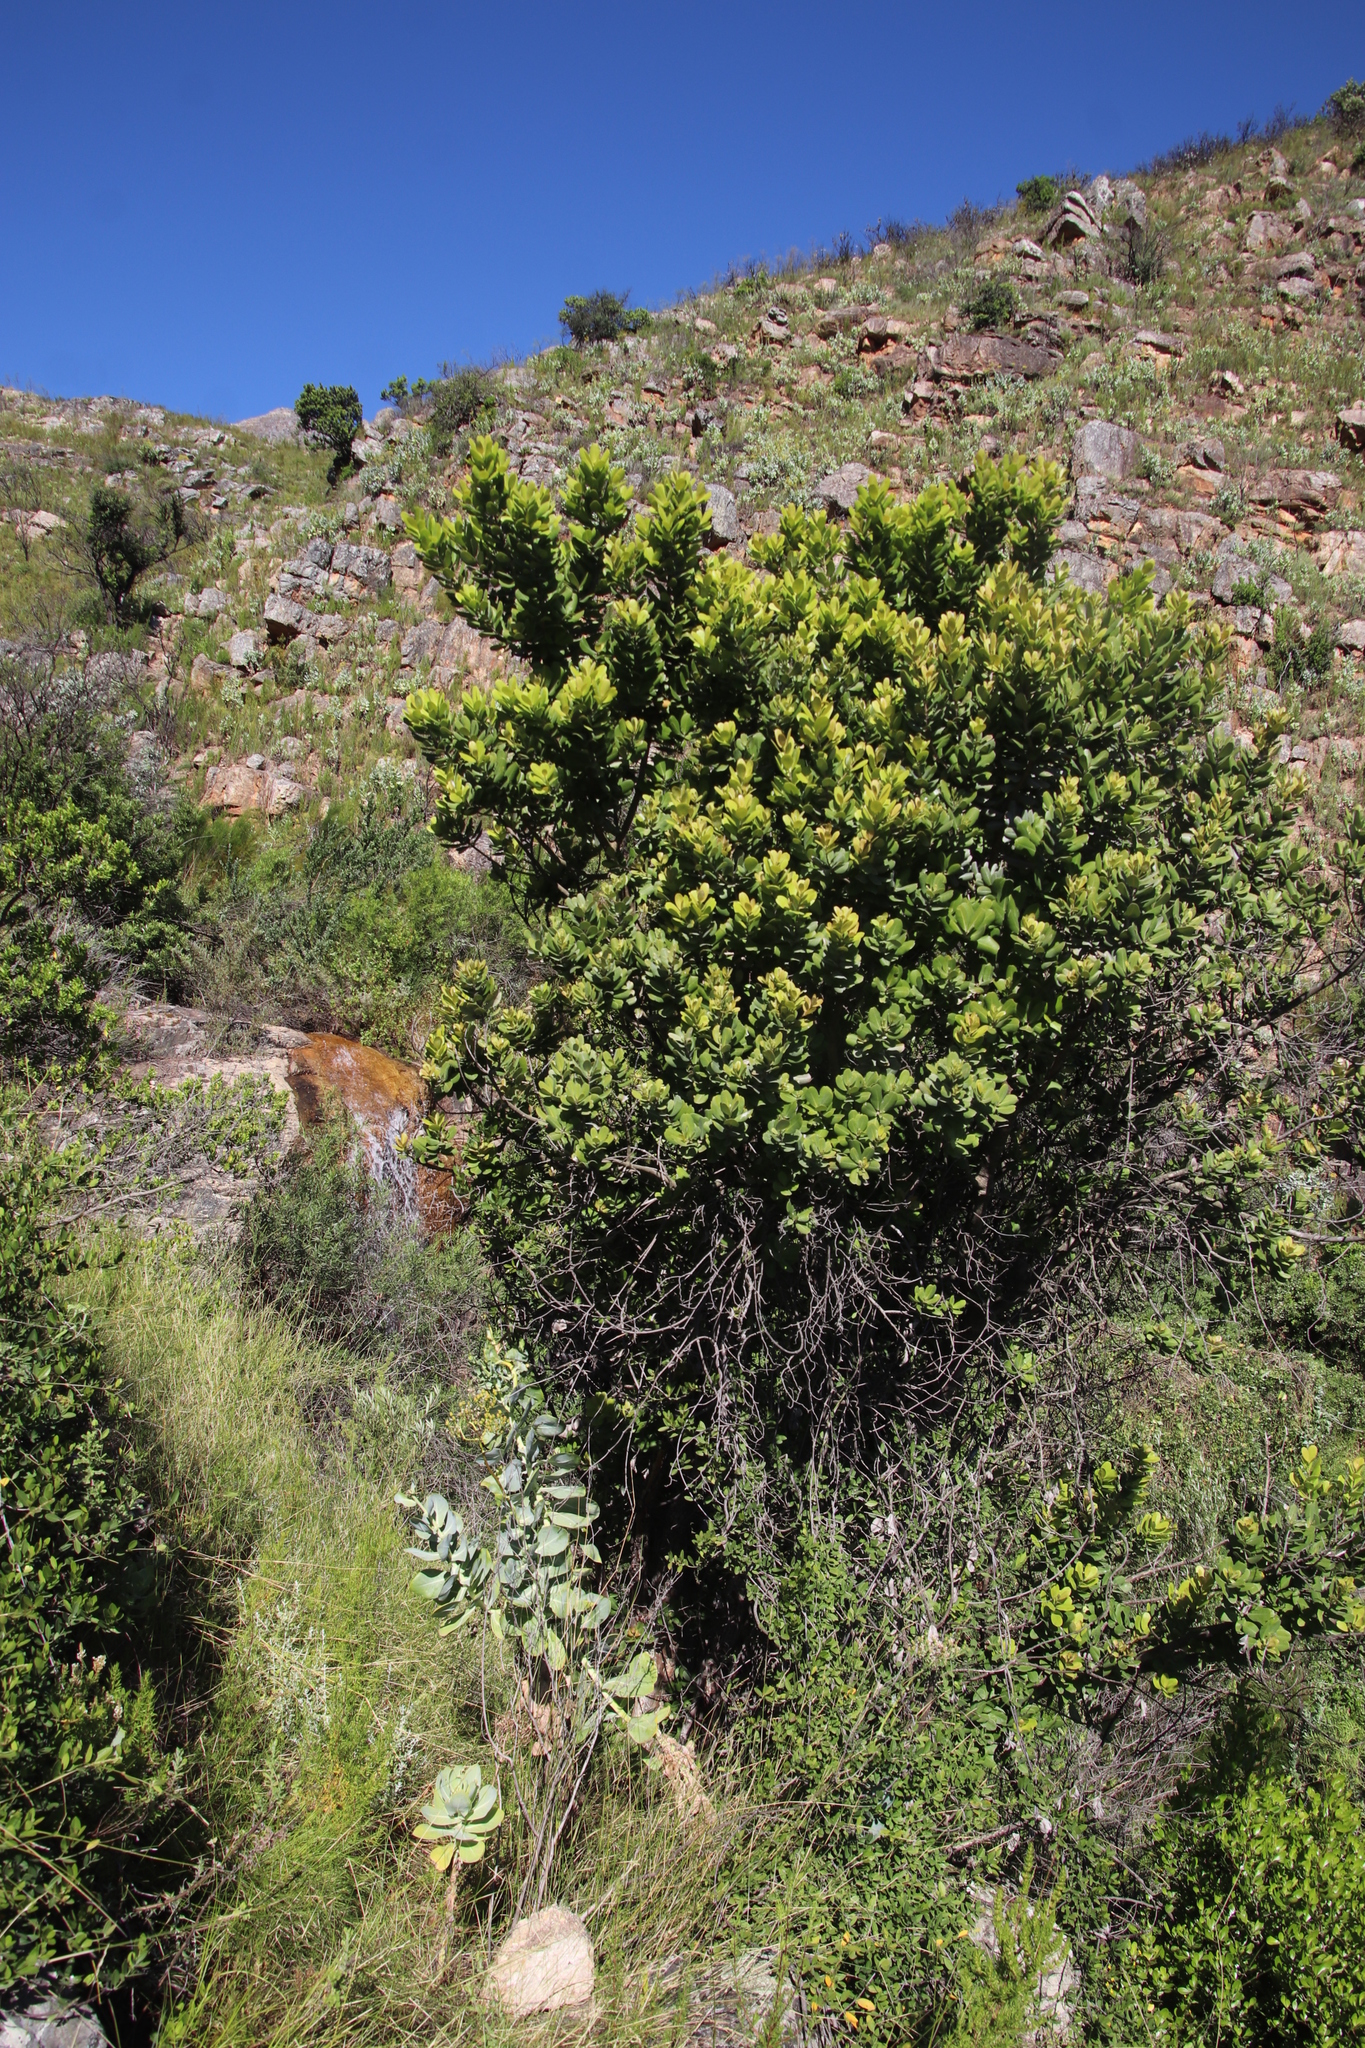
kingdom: Plantae
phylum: Tracheophyta
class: Magnoliopsida
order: Sapindales
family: Anacardiaceae
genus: Heeria
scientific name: Heeria argentea
